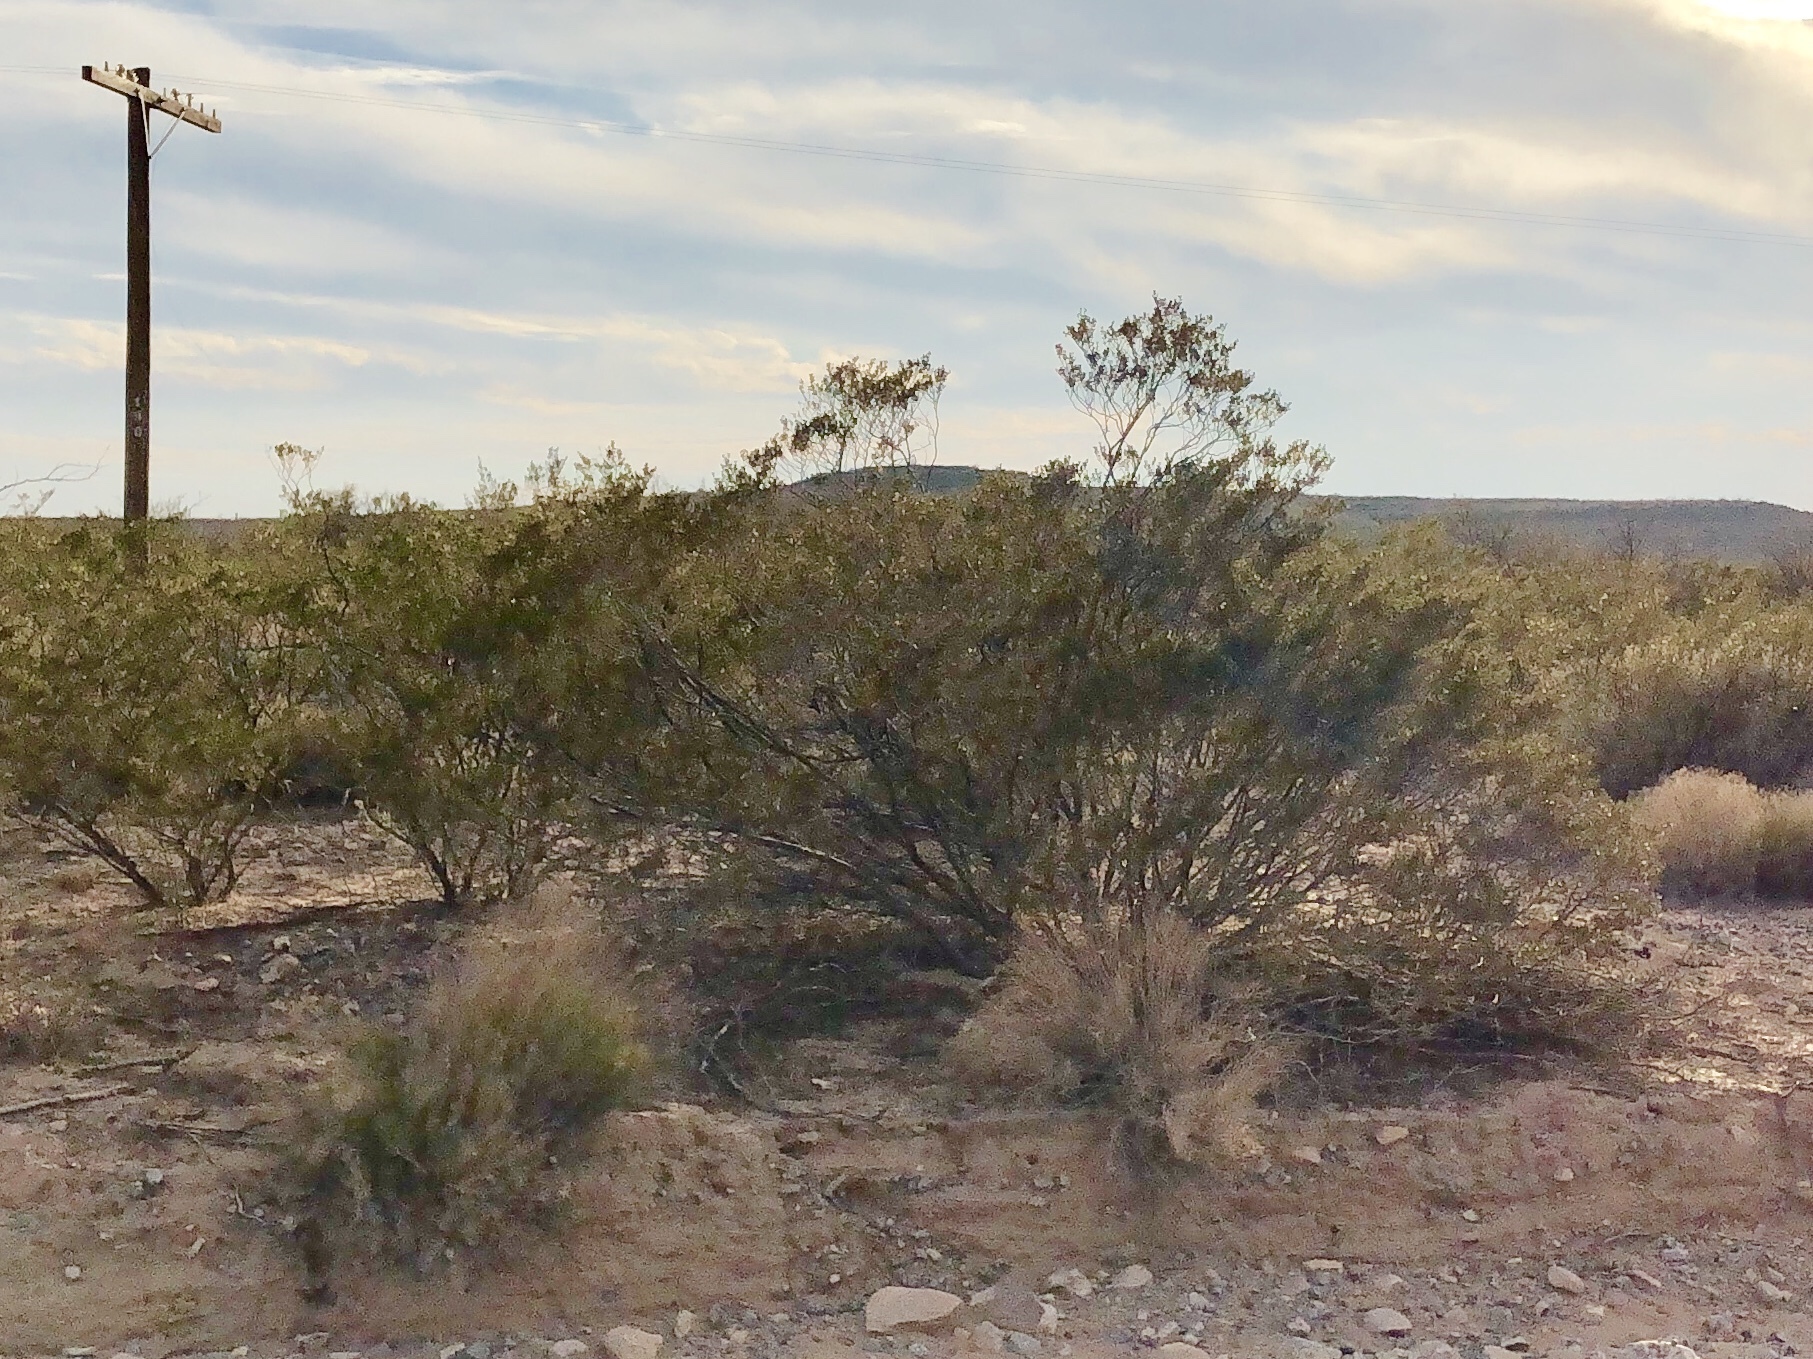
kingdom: Plantae
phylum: Tracheophyta
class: Magnoliopsida
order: Zygophyllales
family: Zygophyllaceae
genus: Larrea
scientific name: Larrea tridentata
